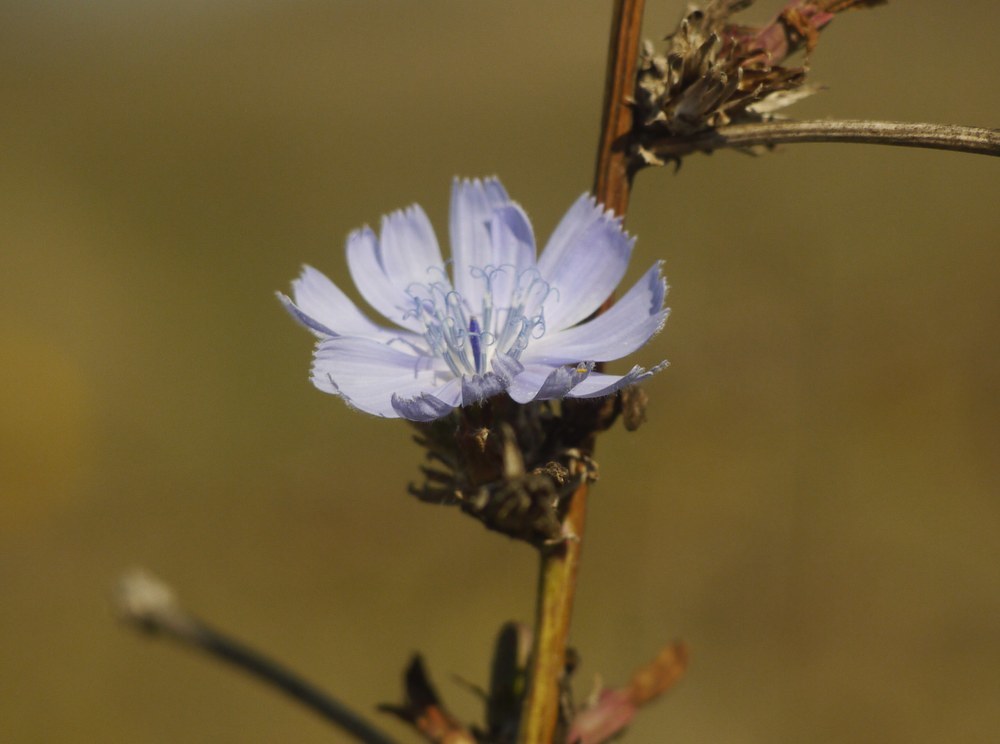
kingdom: Plantae
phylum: Tracheophyta
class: Magnoliopsida
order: Asterales
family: Asteraceae
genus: Cichorium
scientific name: Cichorium intybus
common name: Chicory
